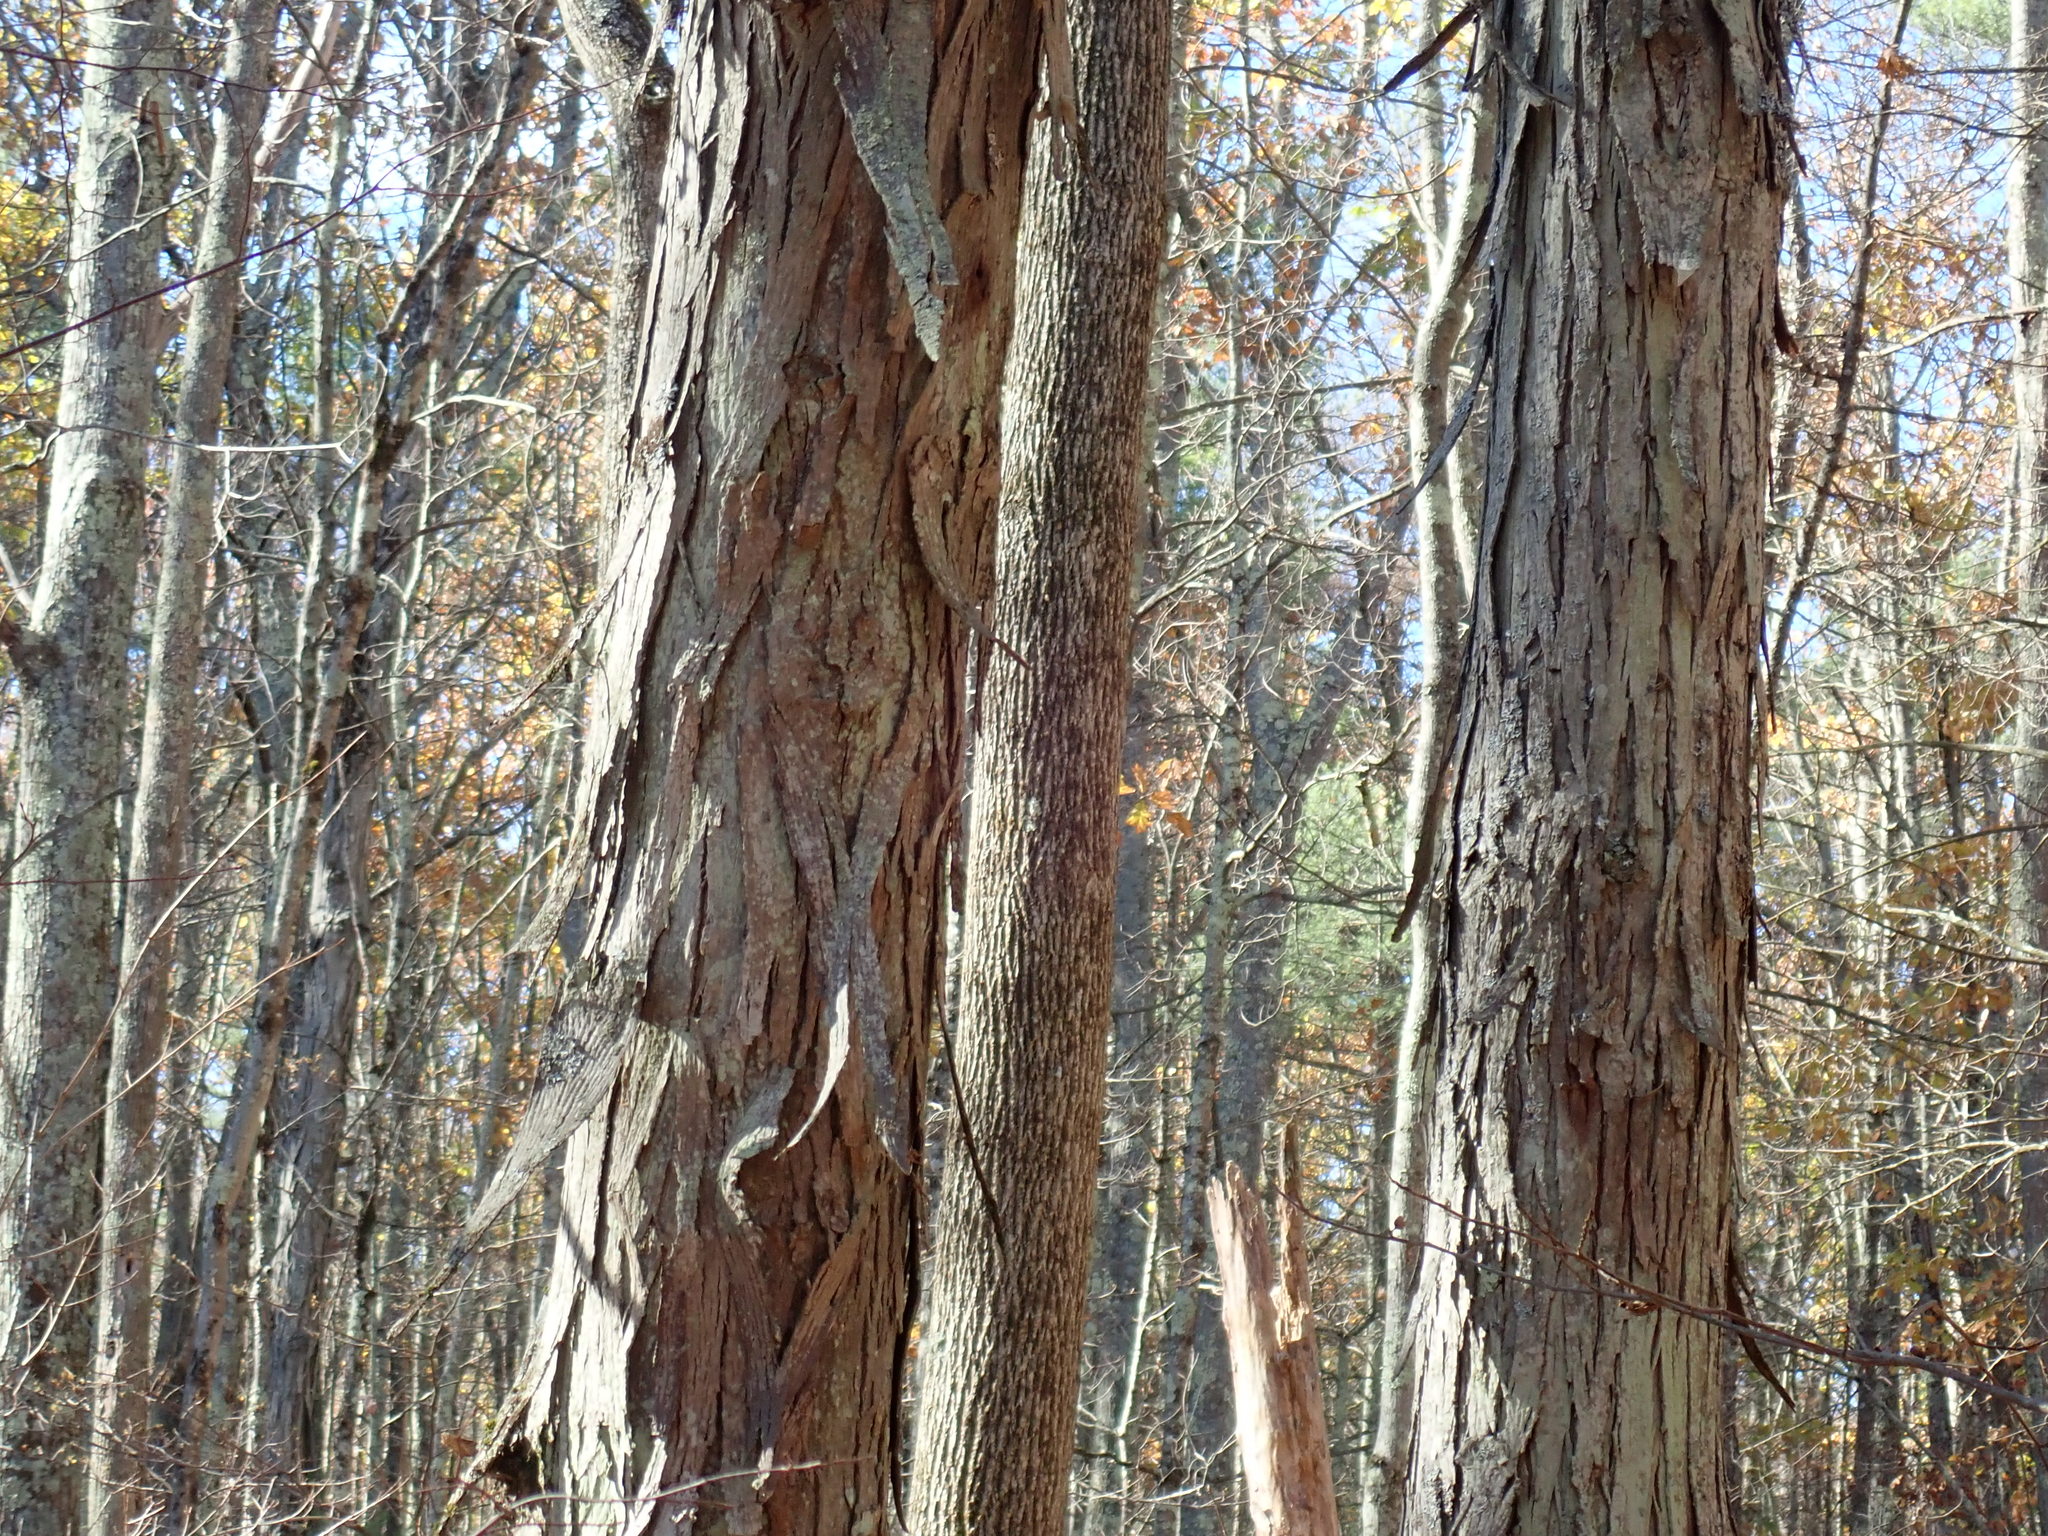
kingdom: Plantae
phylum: Tracheophyta
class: Magnoliopsida
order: Fagales
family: Juglandaceae
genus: Carya
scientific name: Carya ovata
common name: Shagbark hickory
